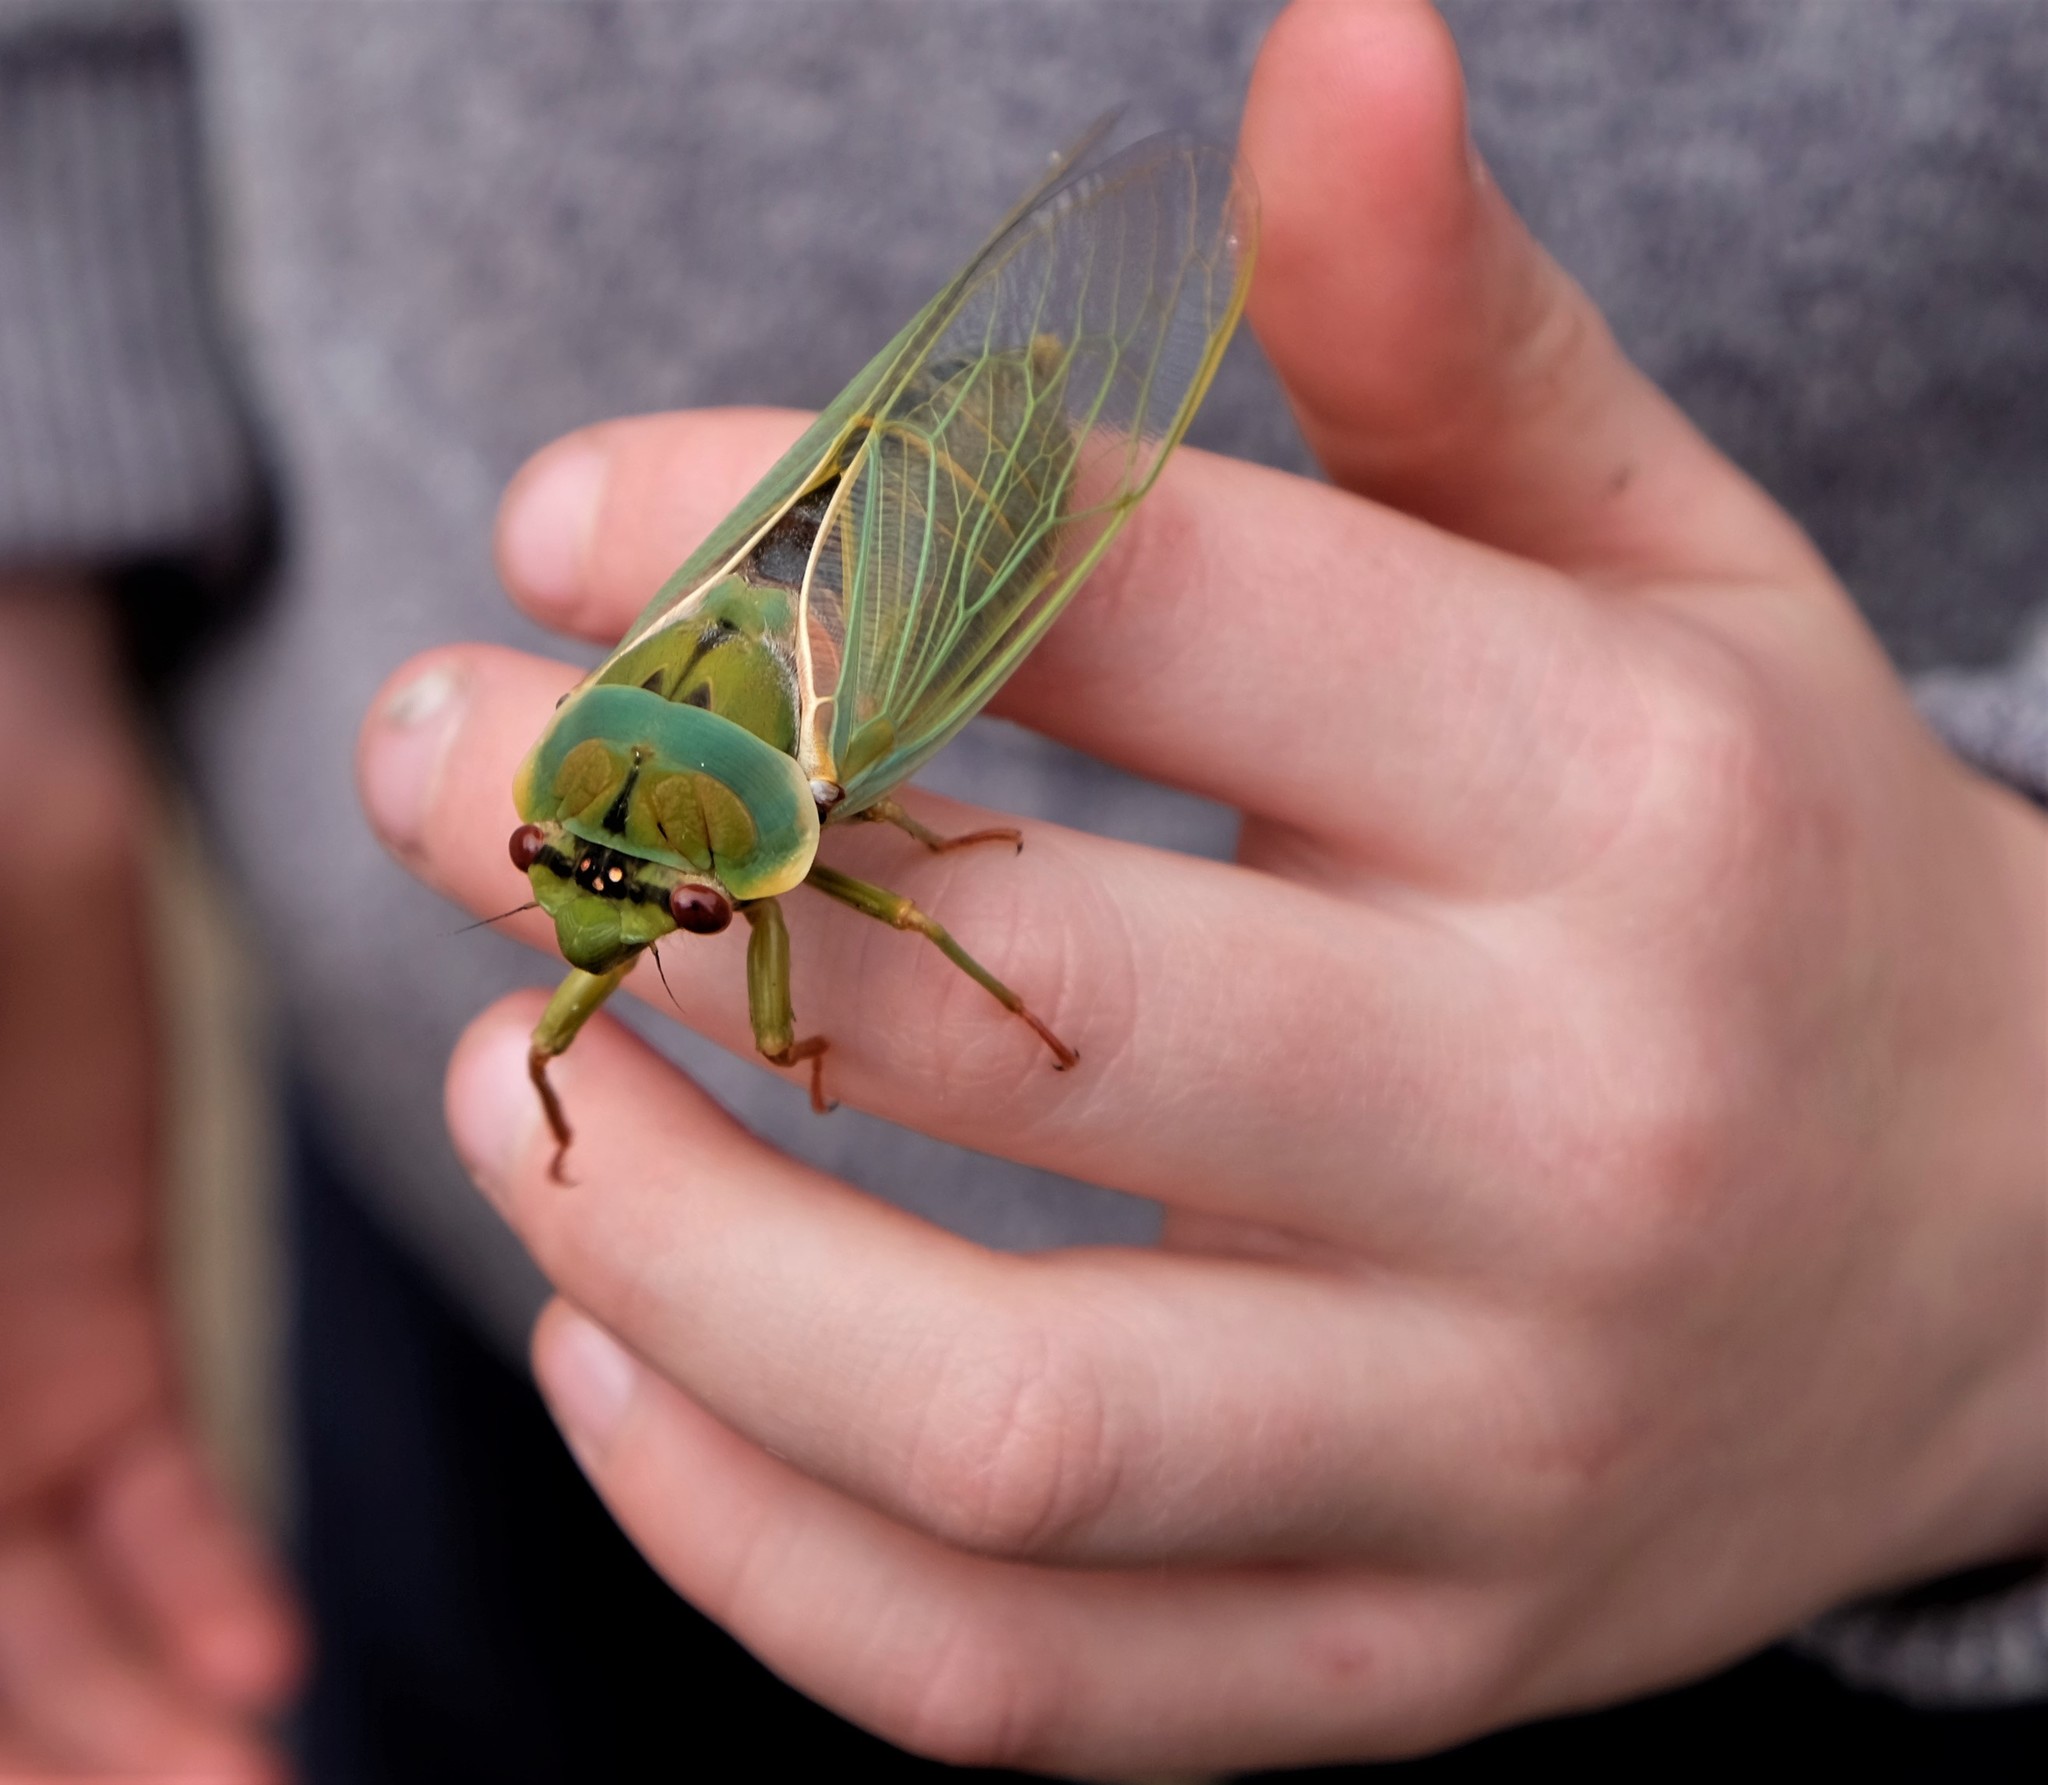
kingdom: Animalia
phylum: Arthropoda
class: Insecta
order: Hemiptera
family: Cicadidae
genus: Cyclochila
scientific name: Cyclochila australasiae
